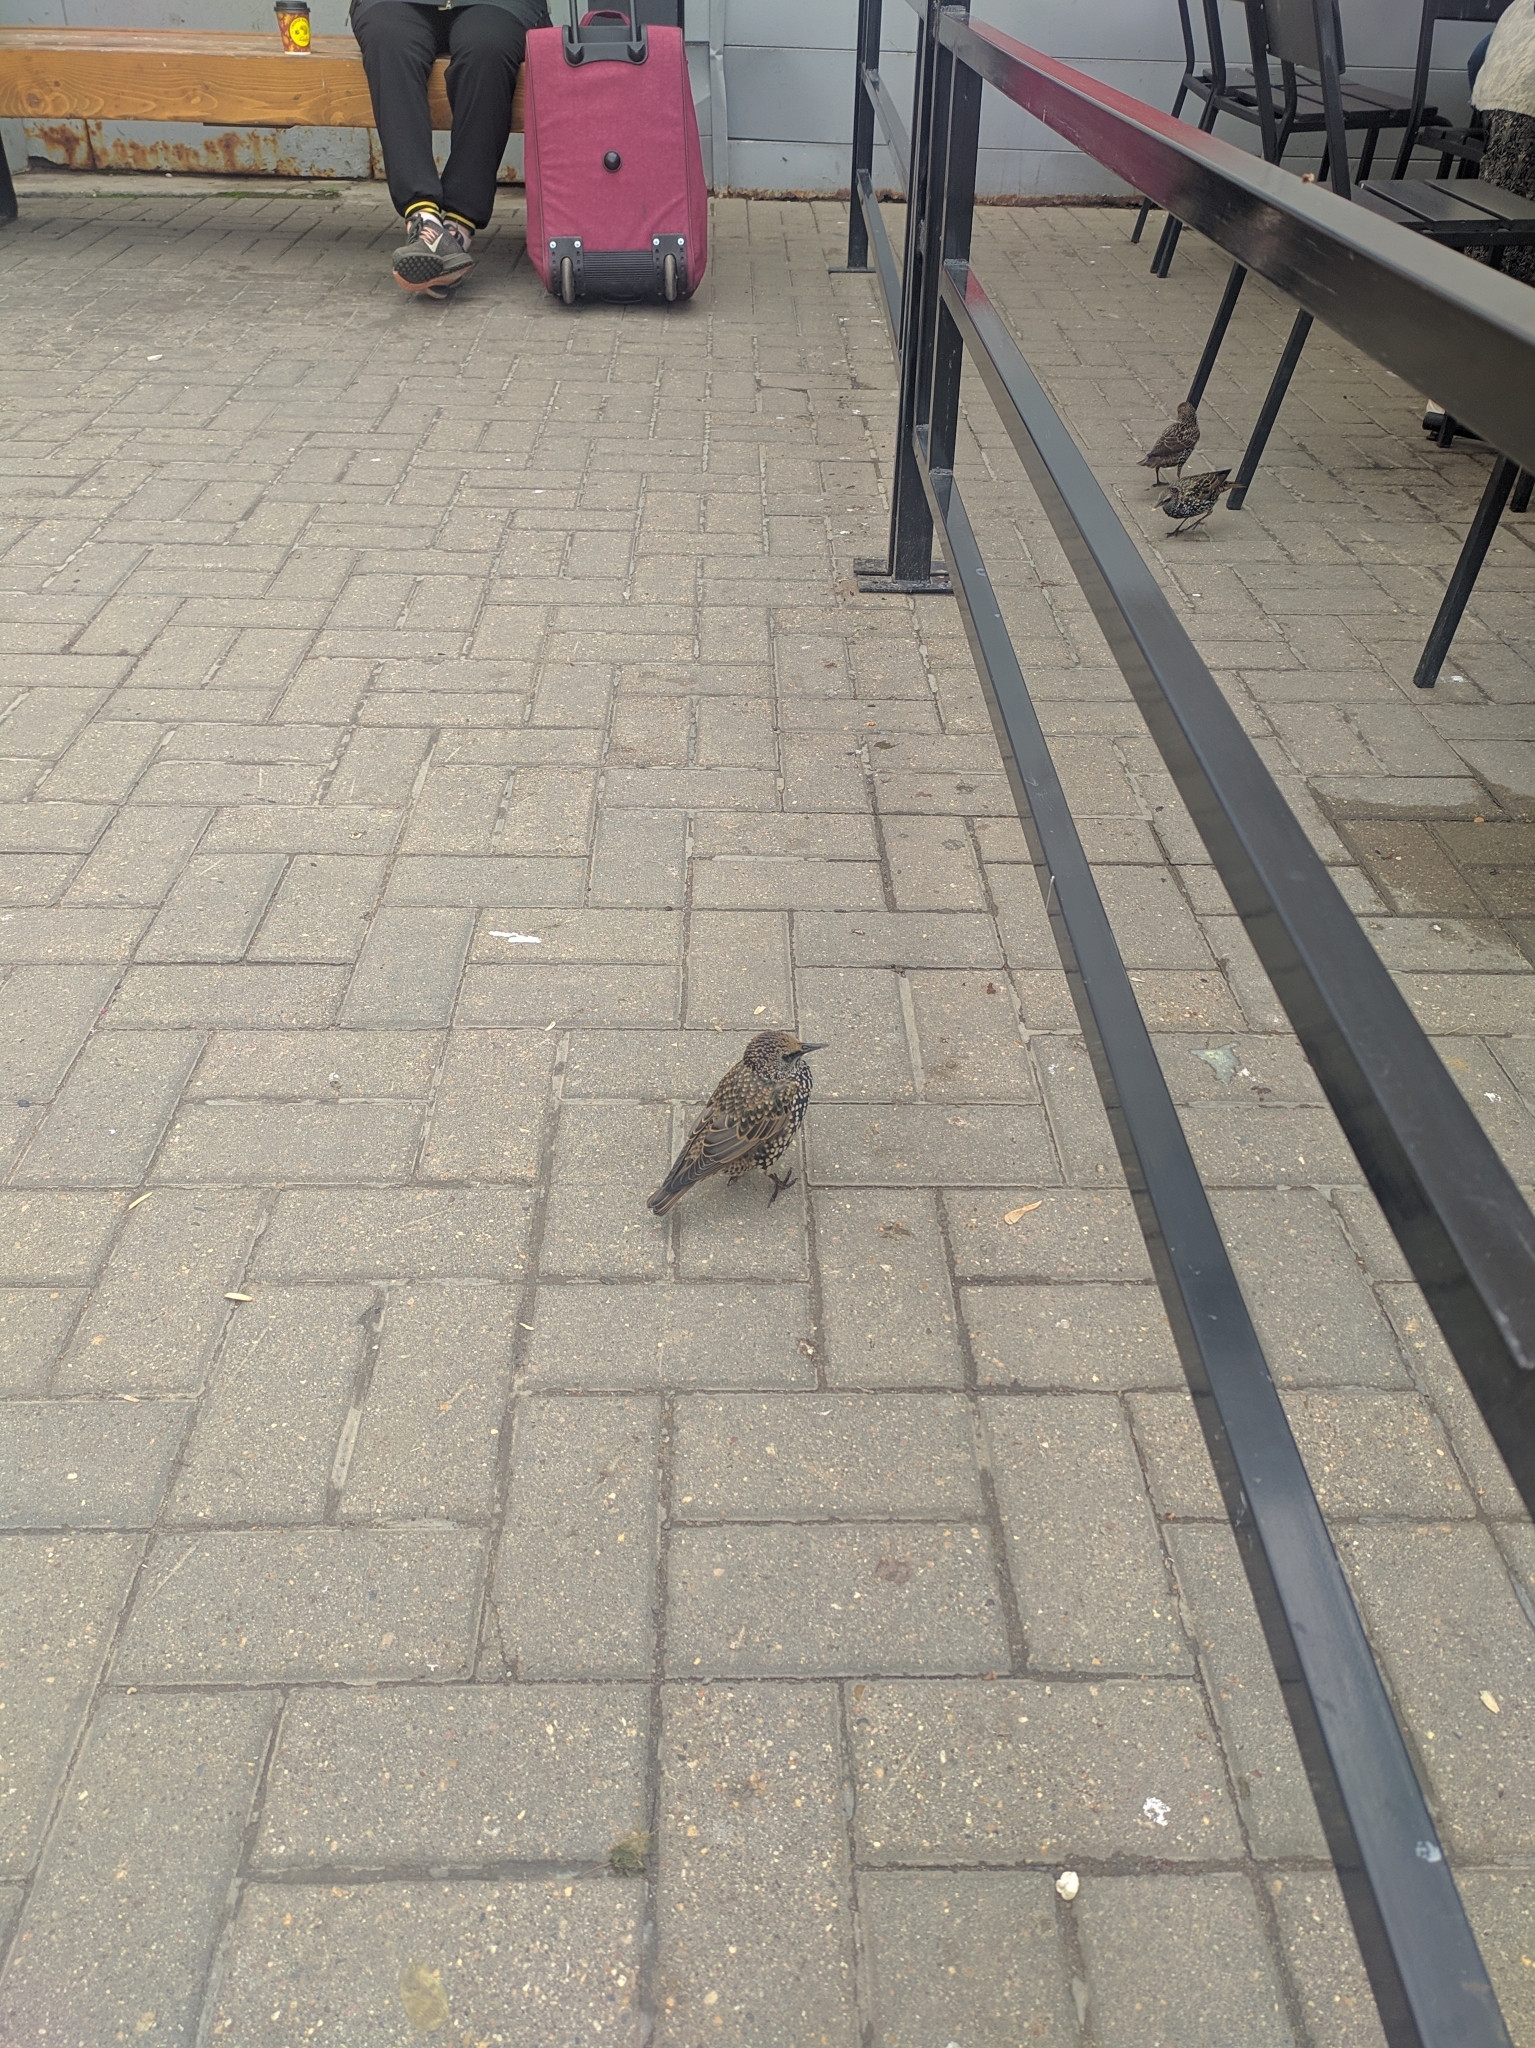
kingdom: Animalia
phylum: Chordata
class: Aves
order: Passeriformes
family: Sturnidae
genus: Sturnus
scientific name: Sturnus vulgaris
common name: Common starling
